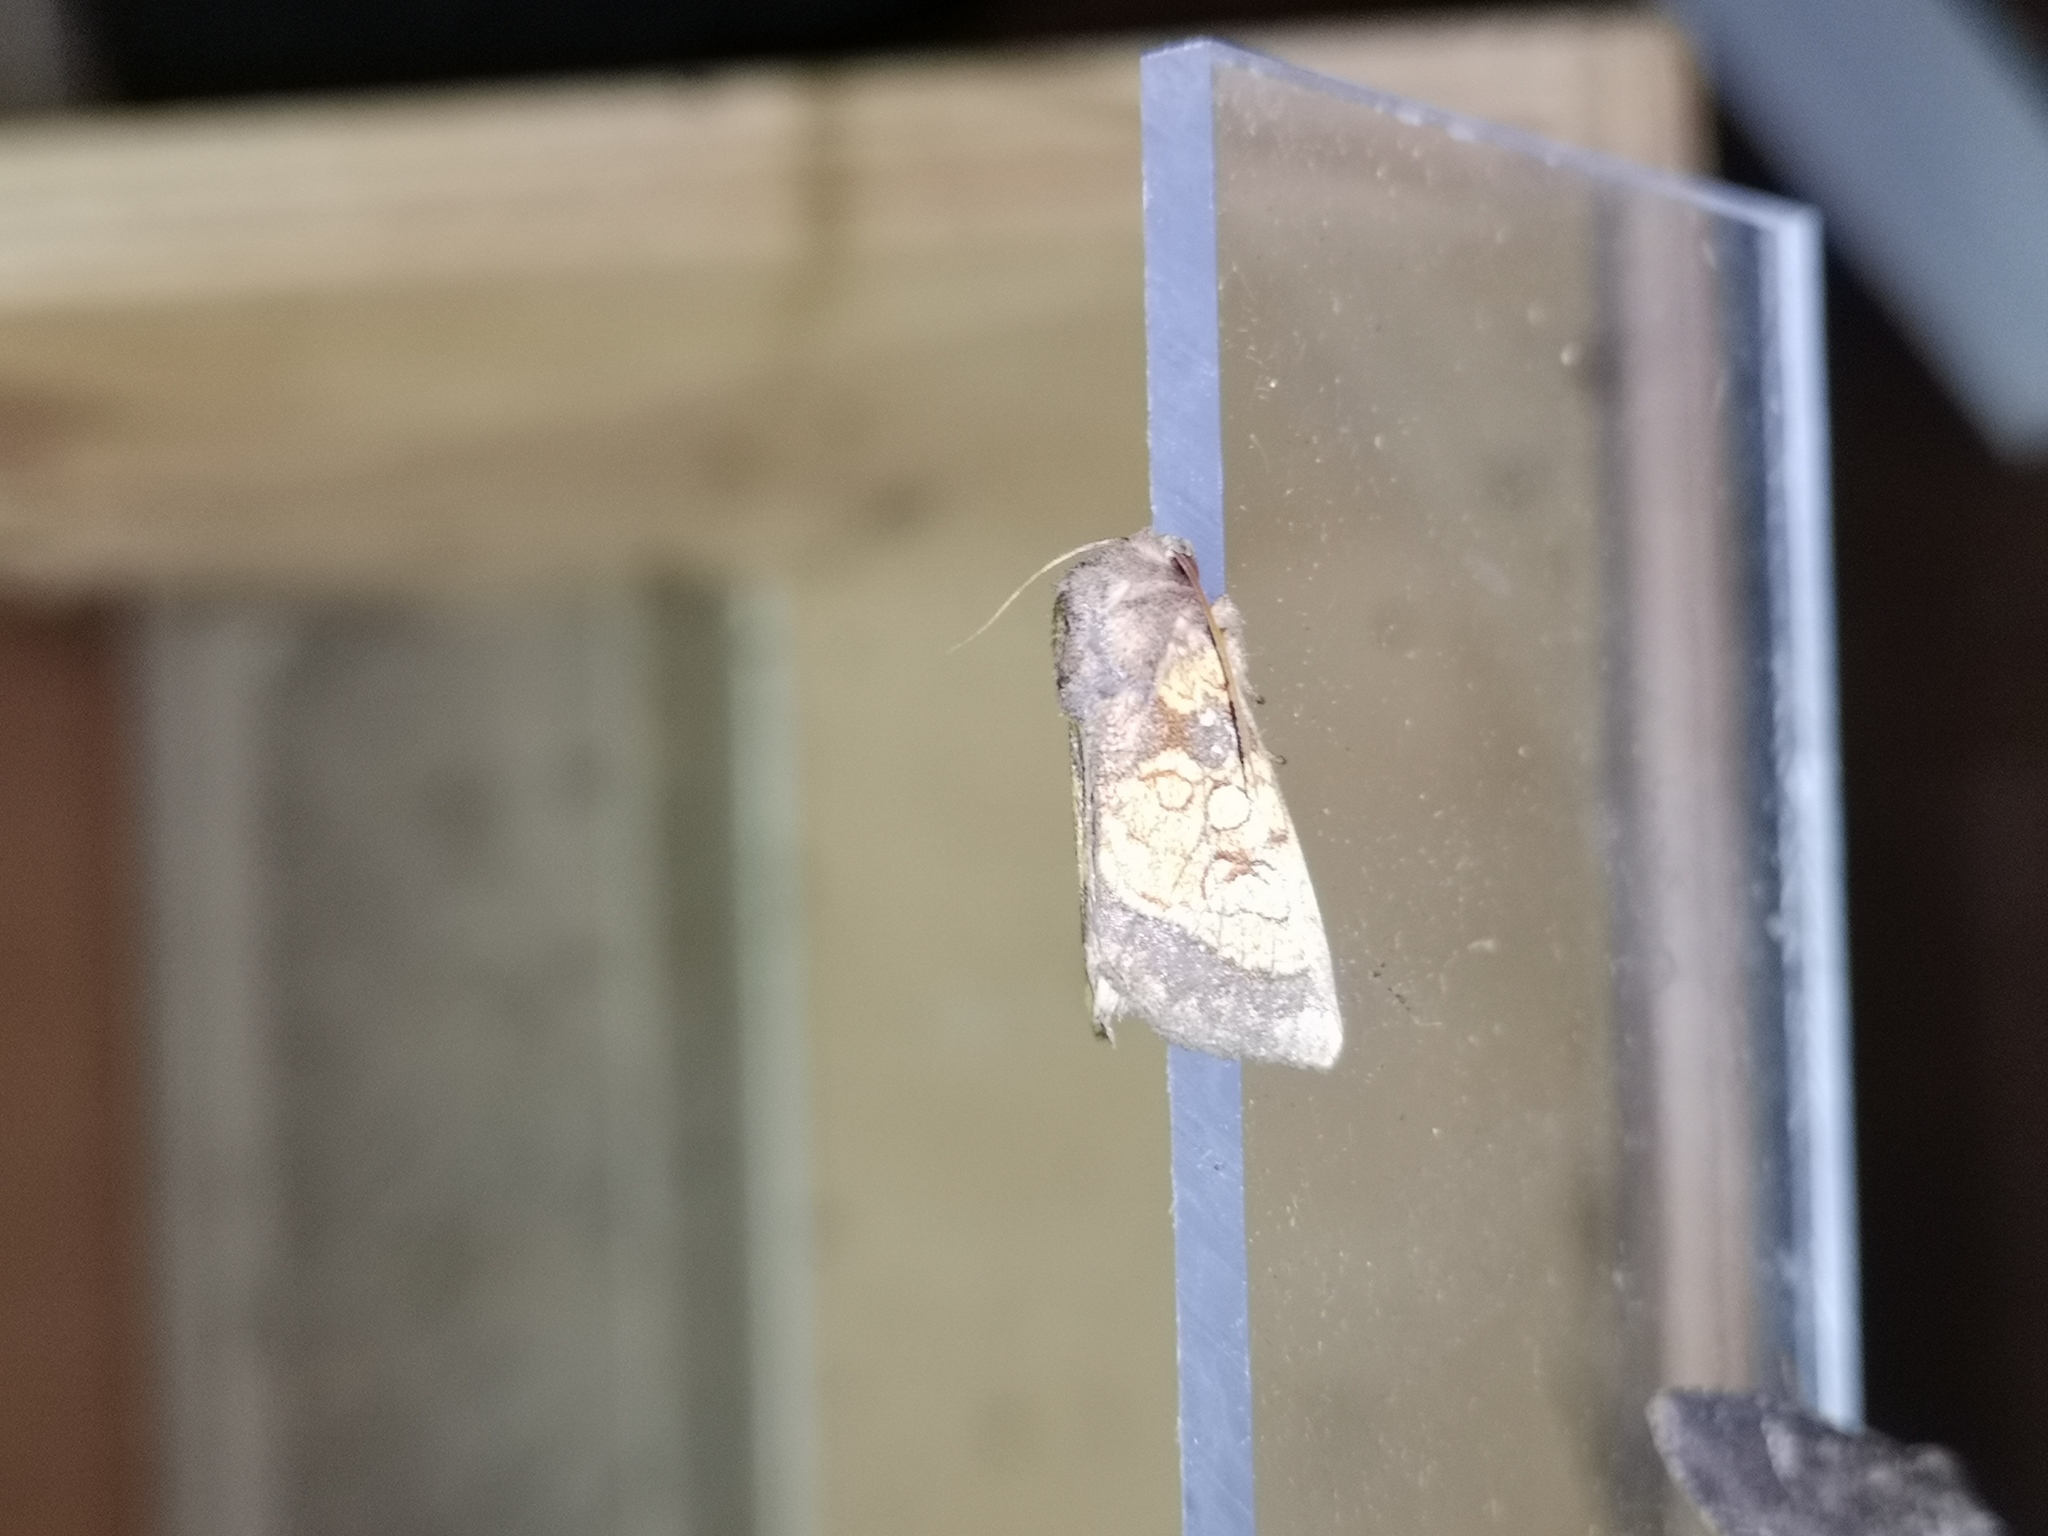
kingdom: Animalia
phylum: Arthropoda
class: Insecta
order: Lepidoptera
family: Noctuidae
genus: Gortyna
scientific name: Gortyna flavago
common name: Frosted orange
